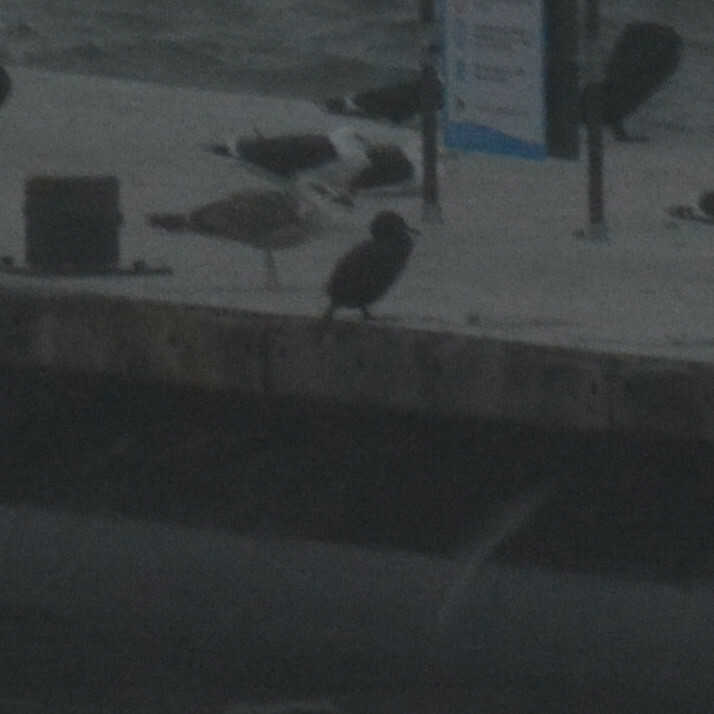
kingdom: Animalia
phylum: Chordata
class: Aves
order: Suliformes
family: Phalacrocoracidae
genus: Phalacrocorax
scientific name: Phalacrocorax aristotelis
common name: European shag
